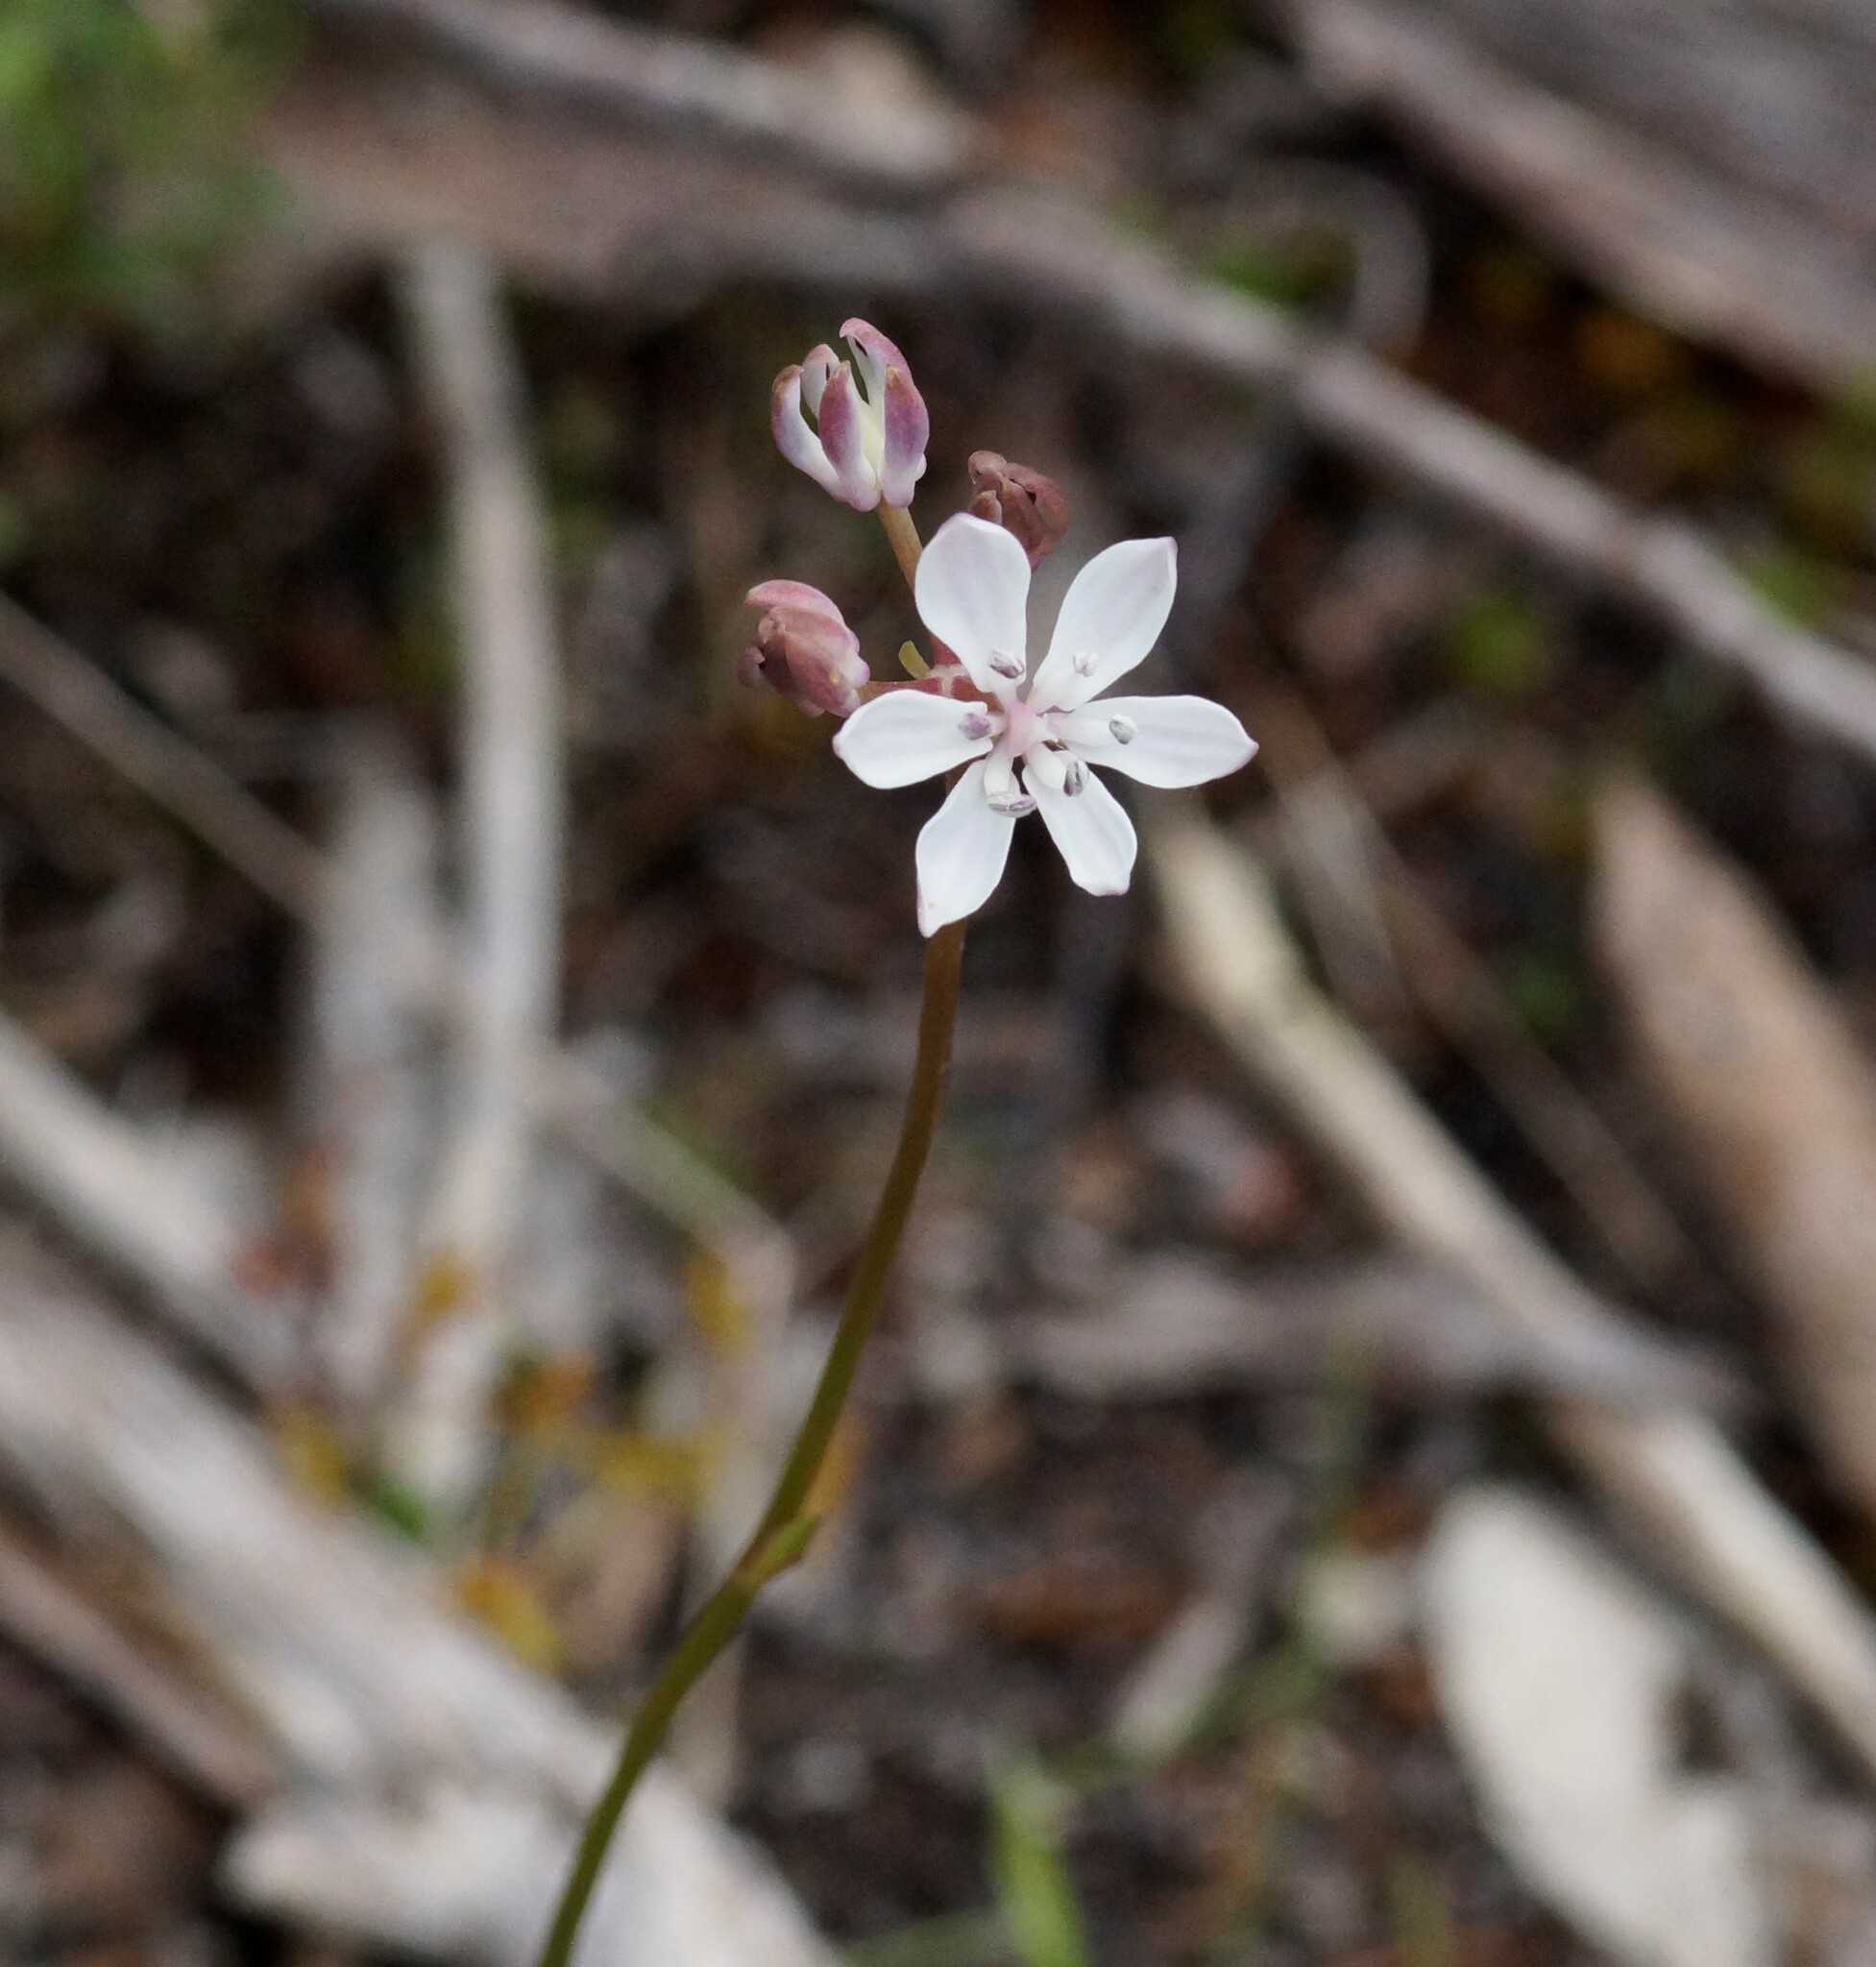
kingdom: Plantae
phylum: Tracheophyta
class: Liliopsida
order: Liliales
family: Colchicaceae
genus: Burchardia
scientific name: Burchardia umbellata
